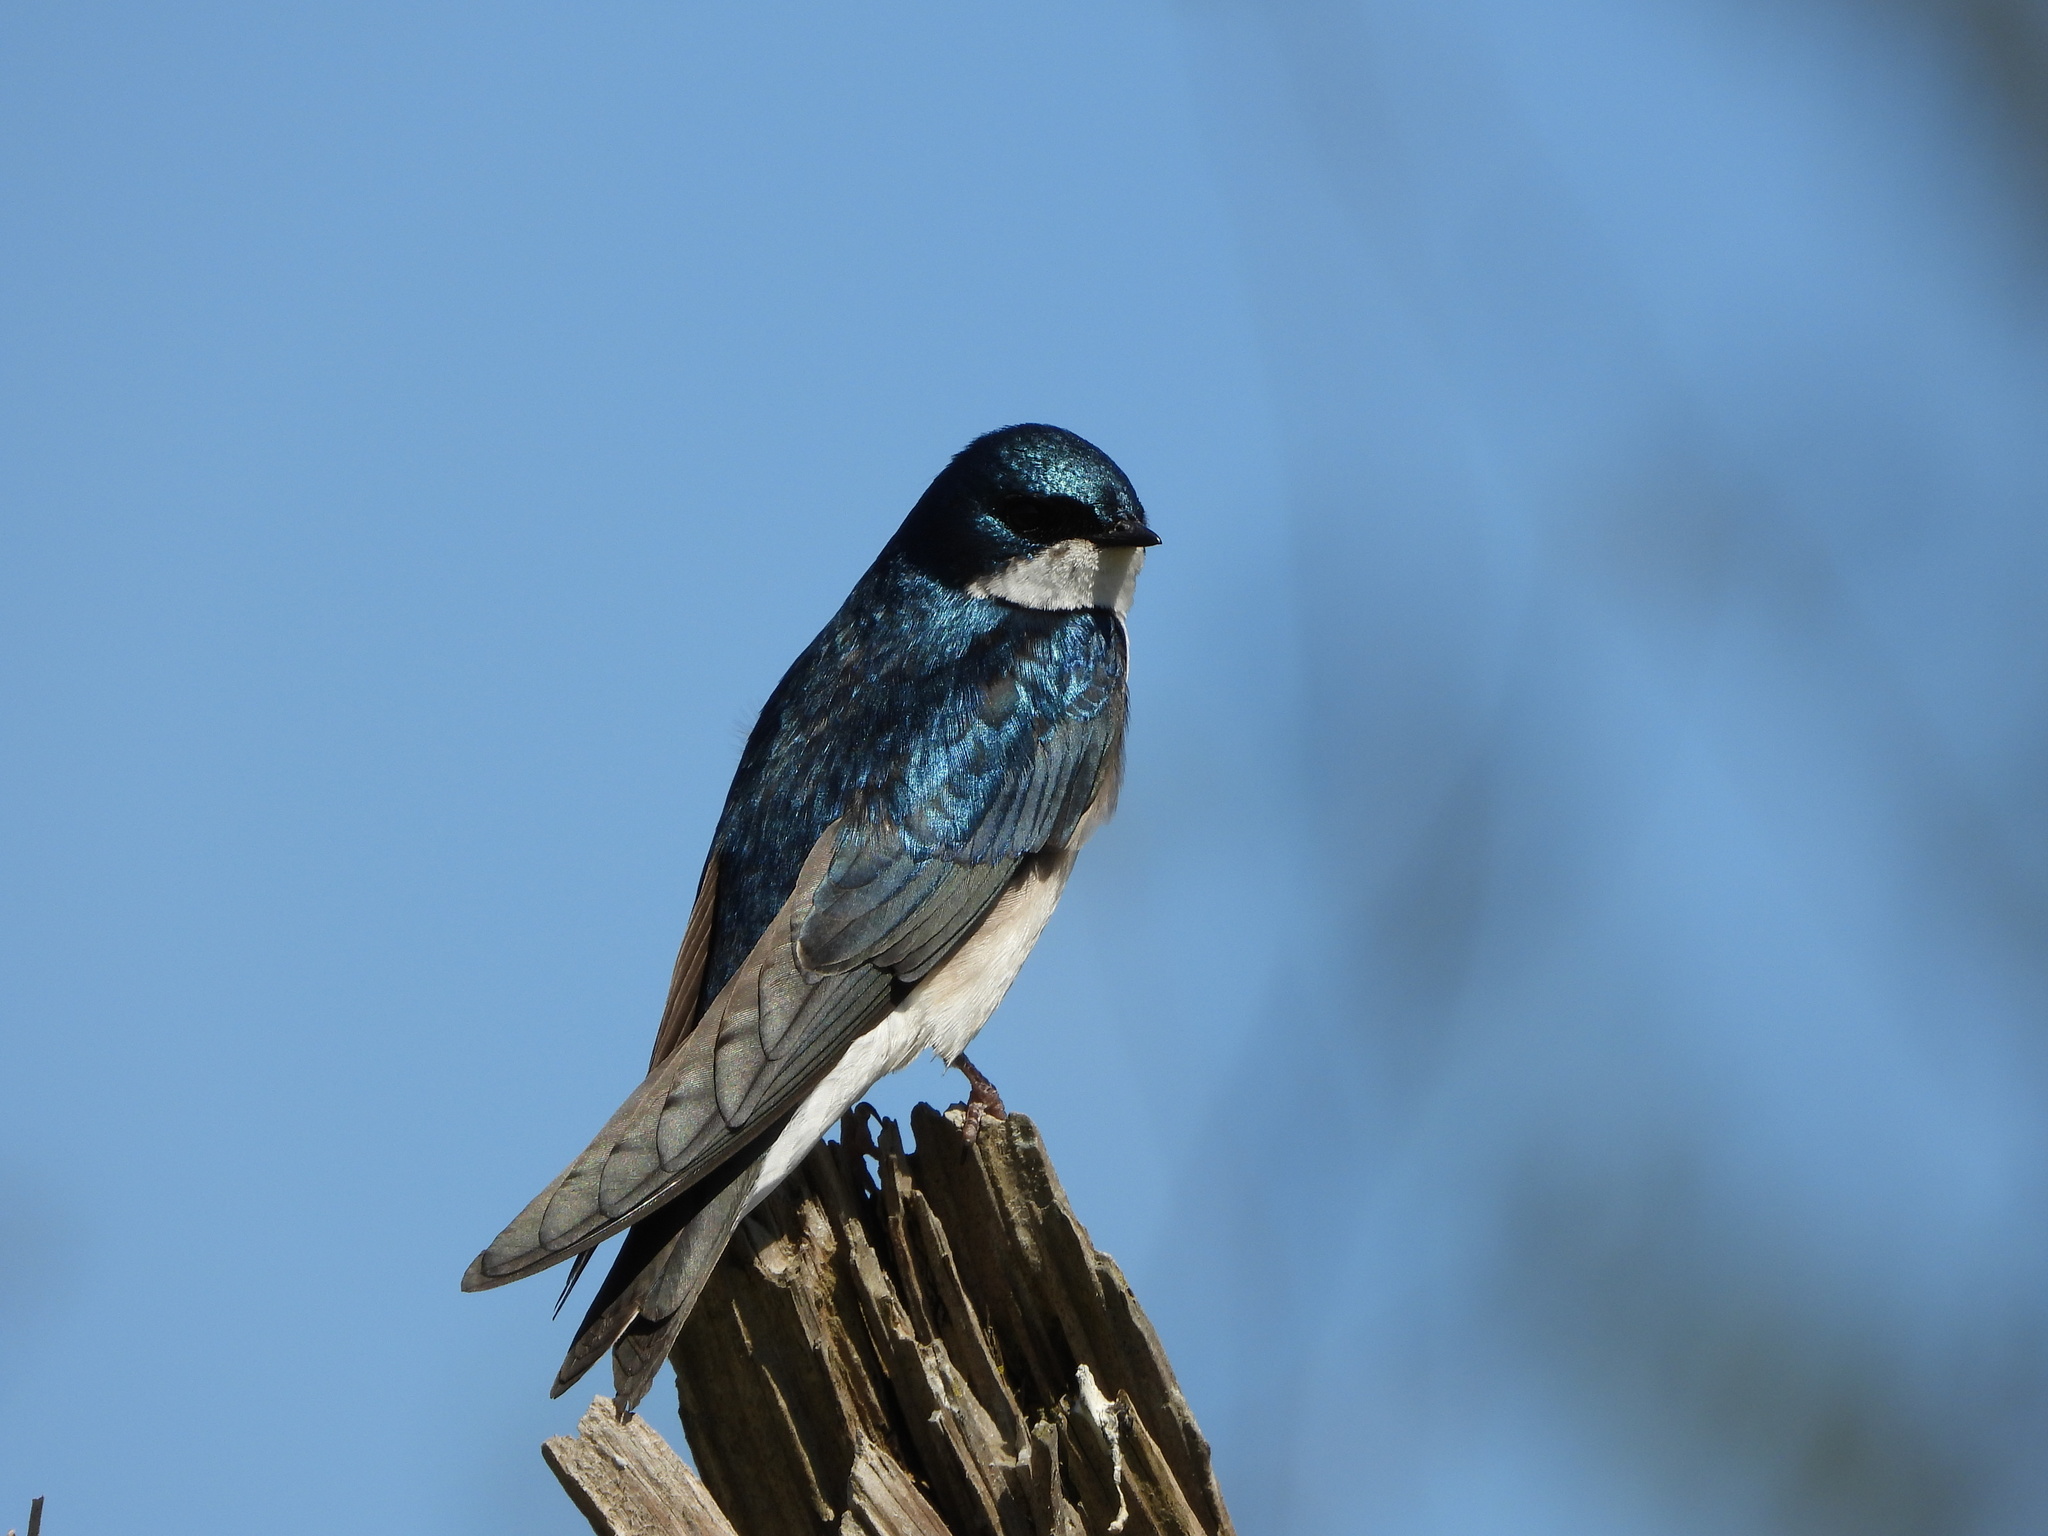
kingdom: Animalia
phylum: Chordata
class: Aves
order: Passeriformes
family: Hirundinidae
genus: Tachycineta
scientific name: Tachycineta bicolor
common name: Tree swallow
